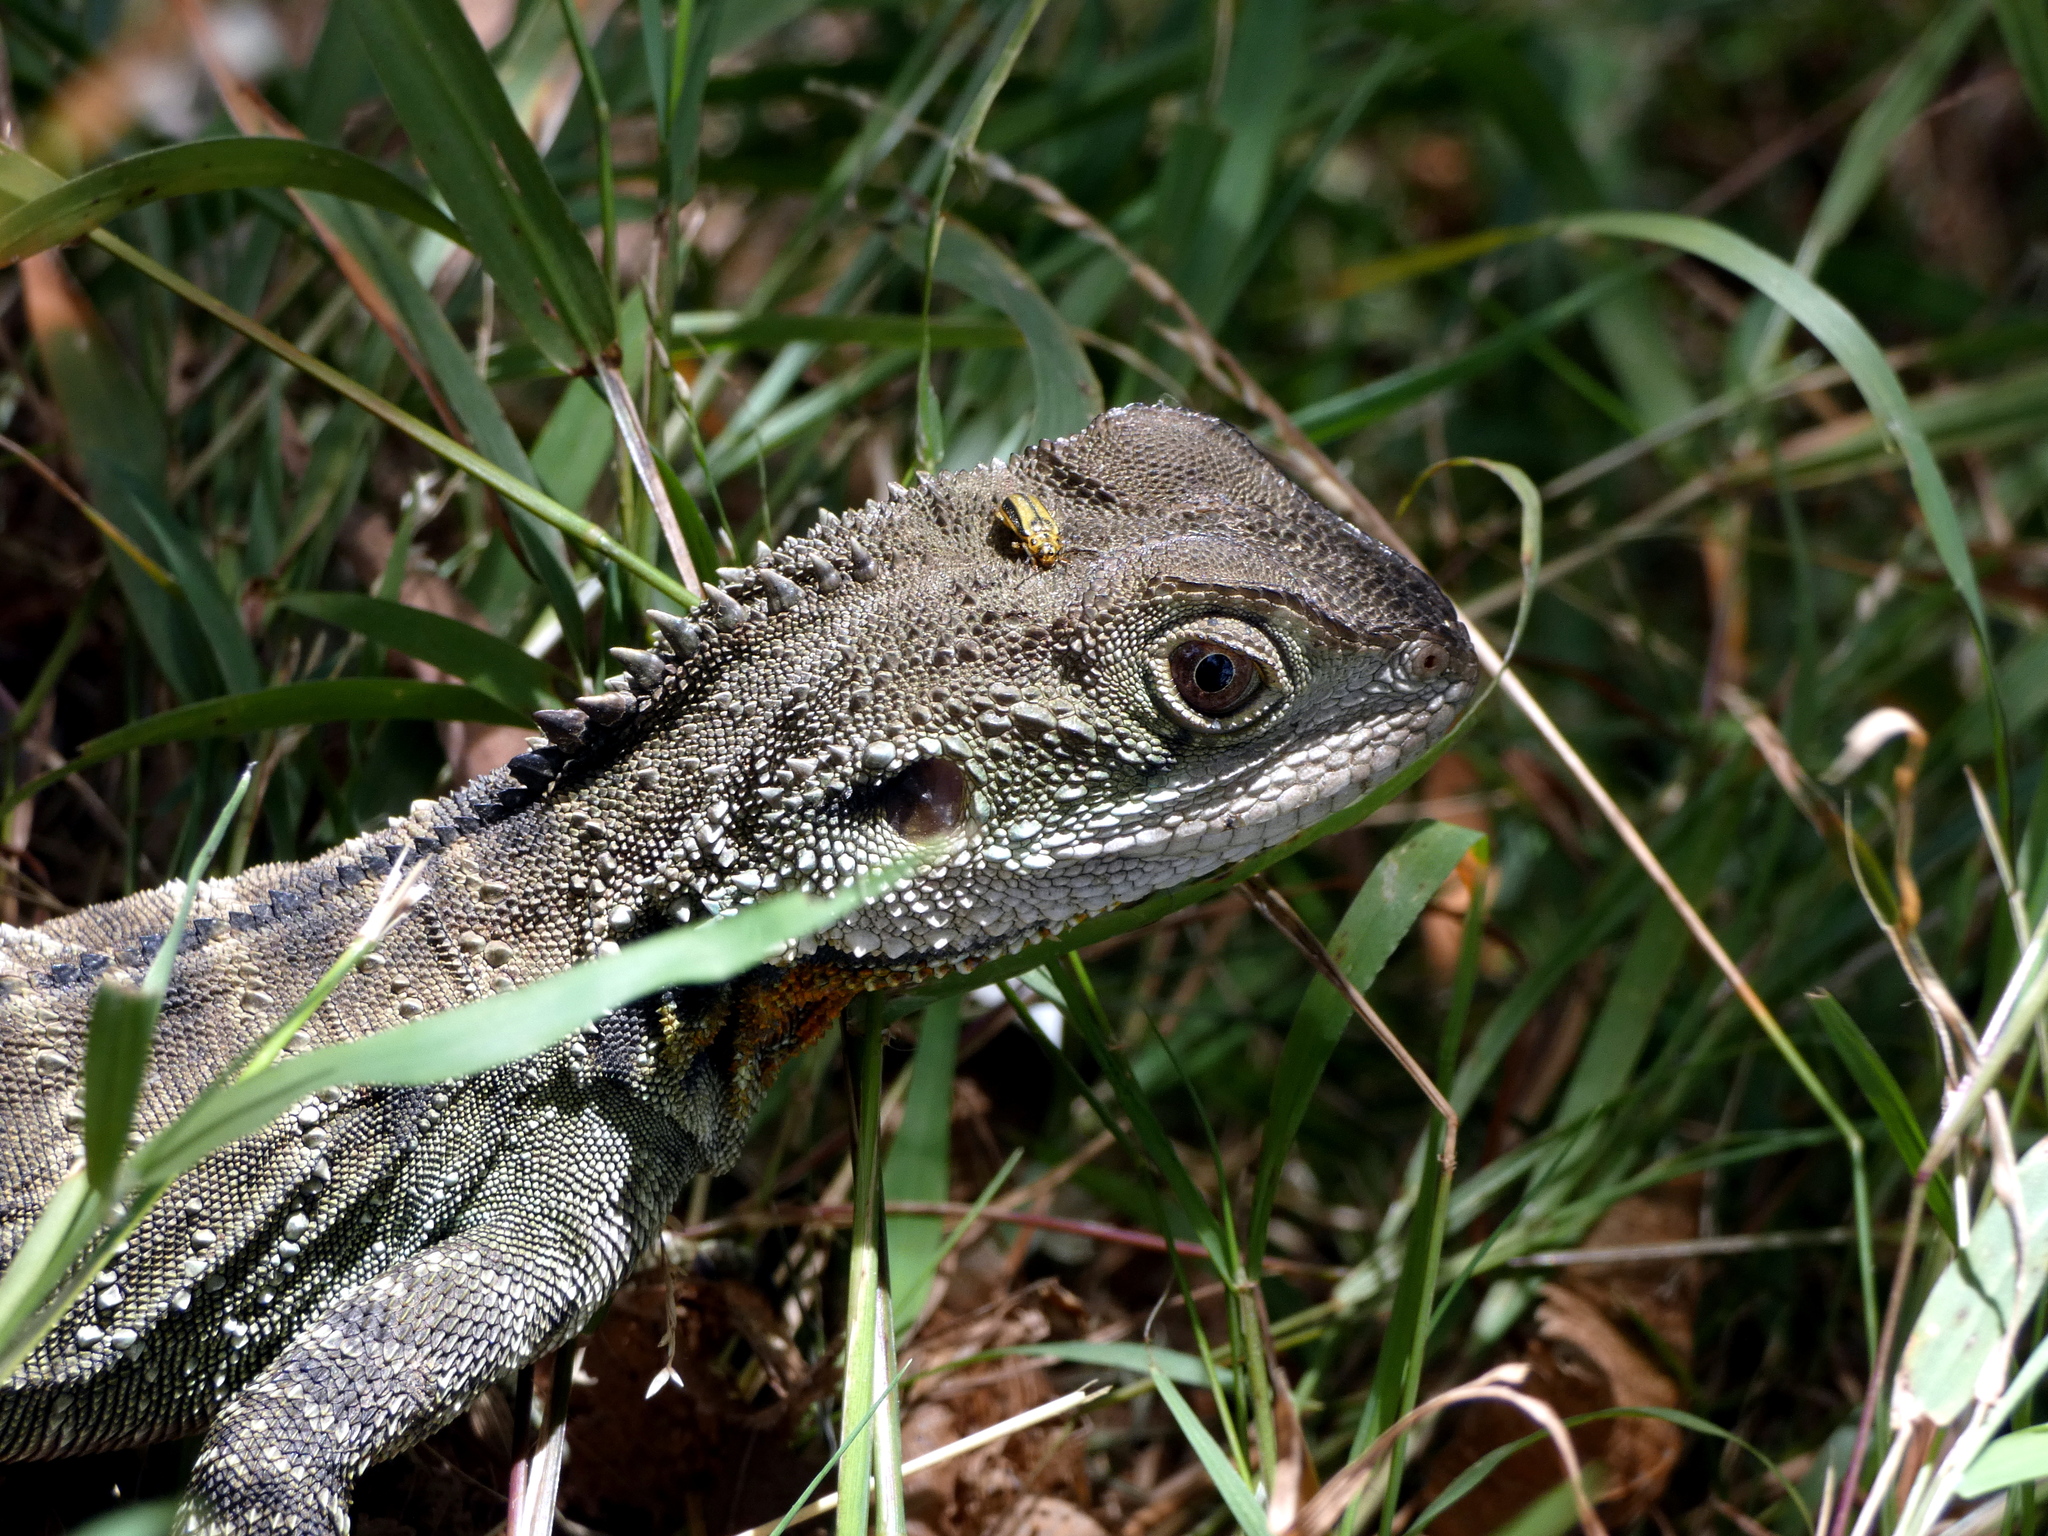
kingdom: Animalia
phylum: Chordata
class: Squamata
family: Agamidae
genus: Intellagama
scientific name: Intellagama lesueurii
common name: Eastern water dragon
